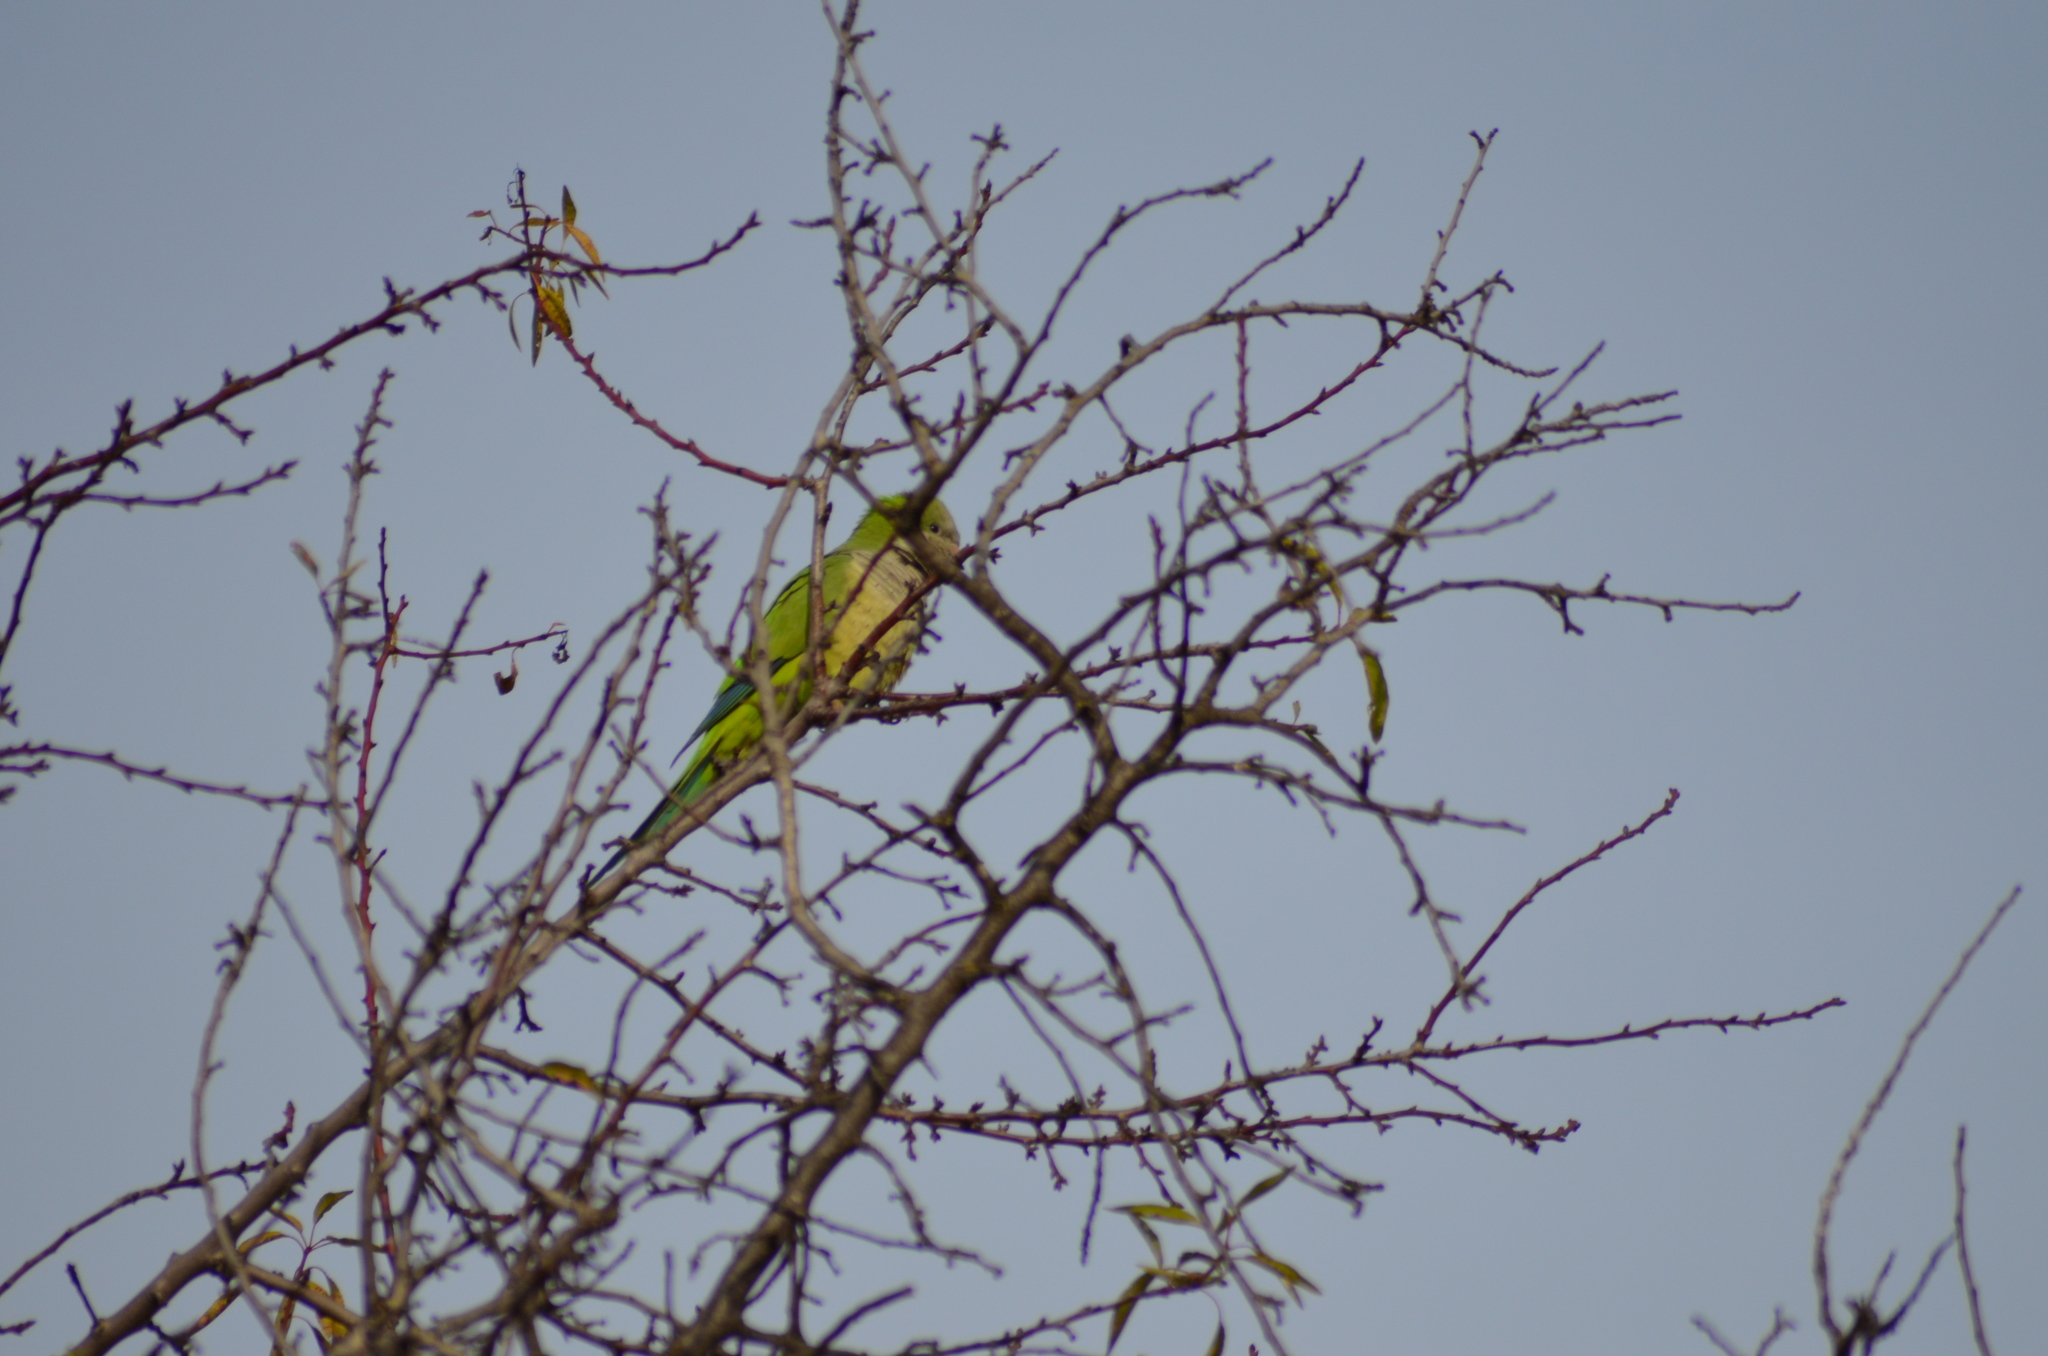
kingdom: Animalia
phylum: Chordata
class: Aves
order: Psittaciformes
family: Psittacidae
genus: Myiopsitta
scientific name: Myiopsitta monachus
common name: Monk parakeet
